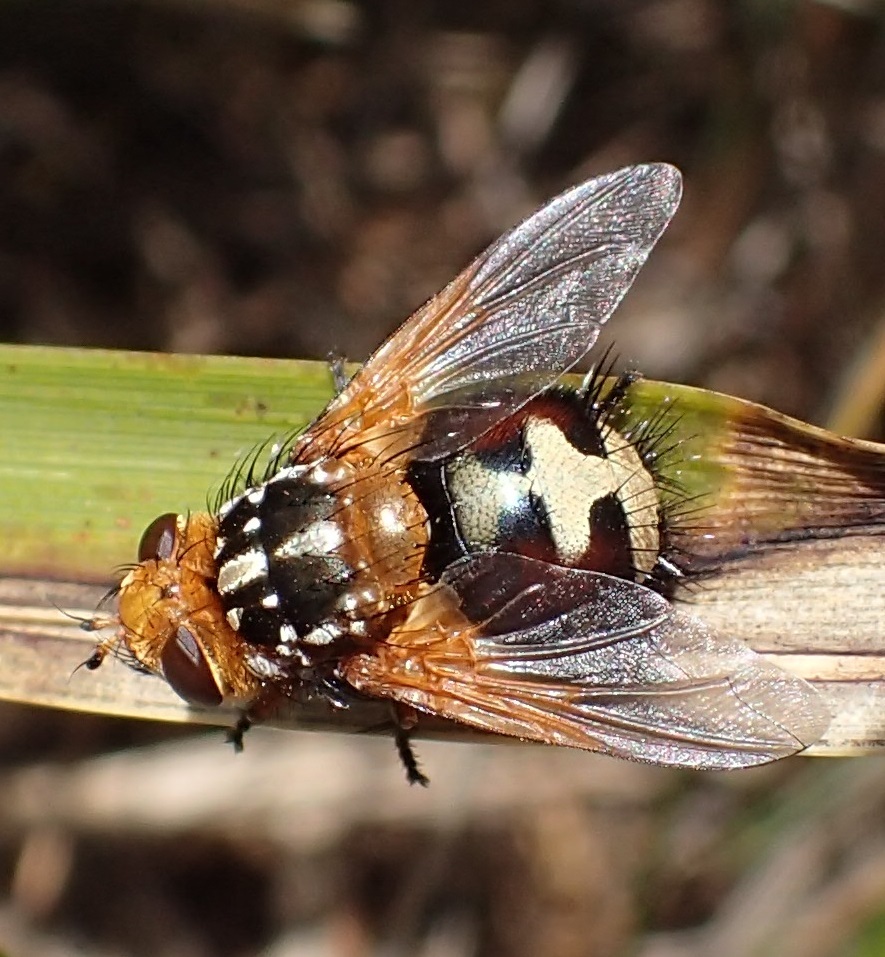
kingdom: Animalia
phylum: Arthropoda
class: Insecta
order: Diptera
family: Tachinidae
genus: Microtropesa
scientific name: Microtropesa nigricornis
